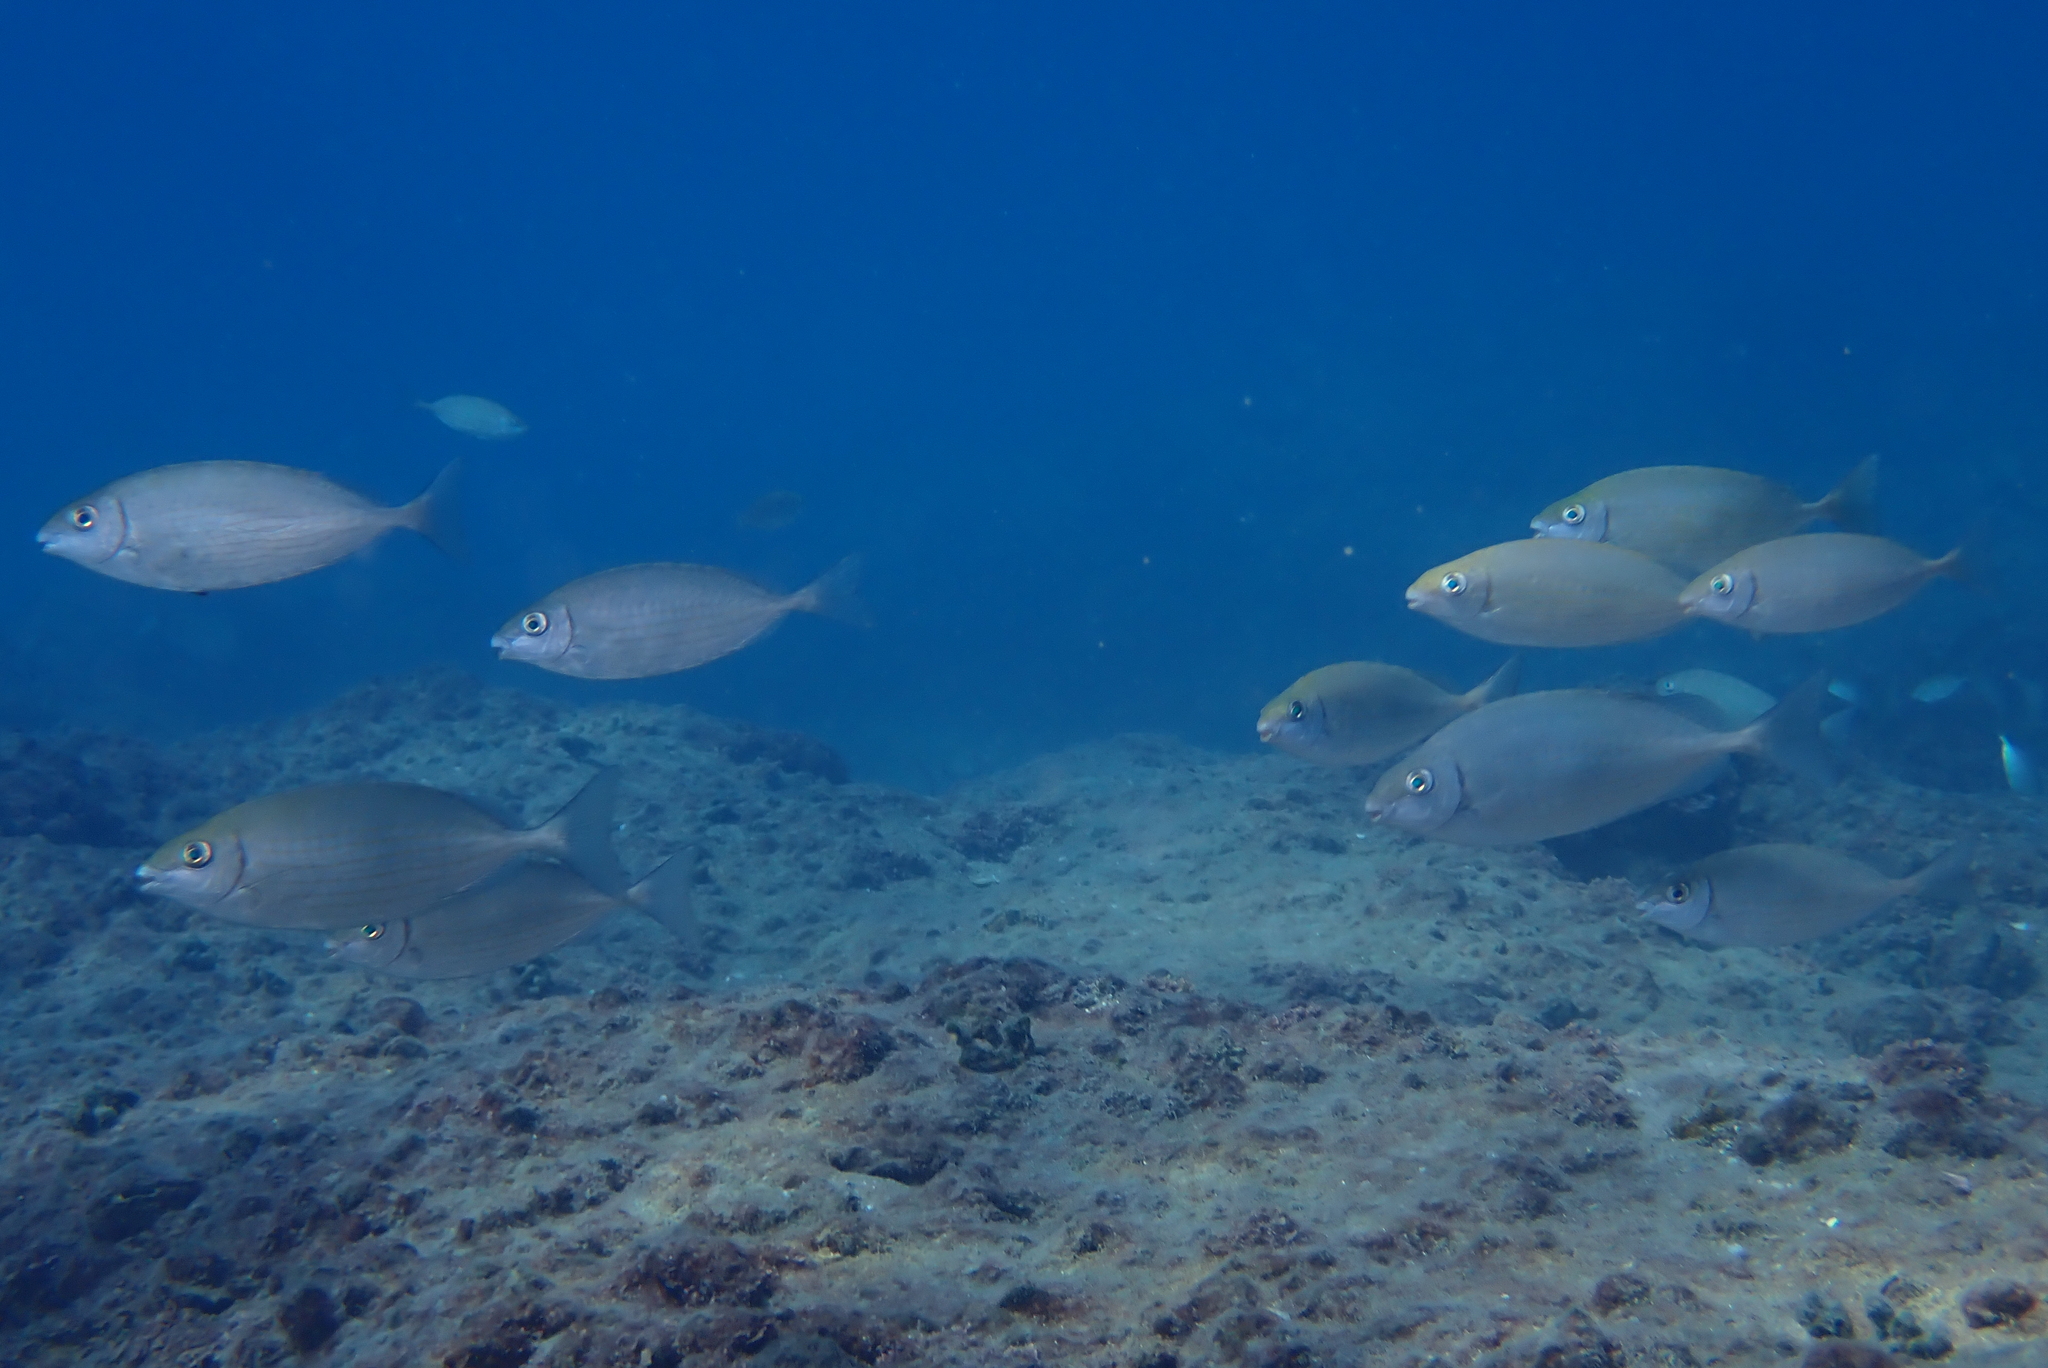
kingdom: Animalia
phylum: Chordata
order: Perciformes
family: Siganidae
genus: Siganus
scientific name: Siganus rivulatus
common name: Marbled spinefoot
